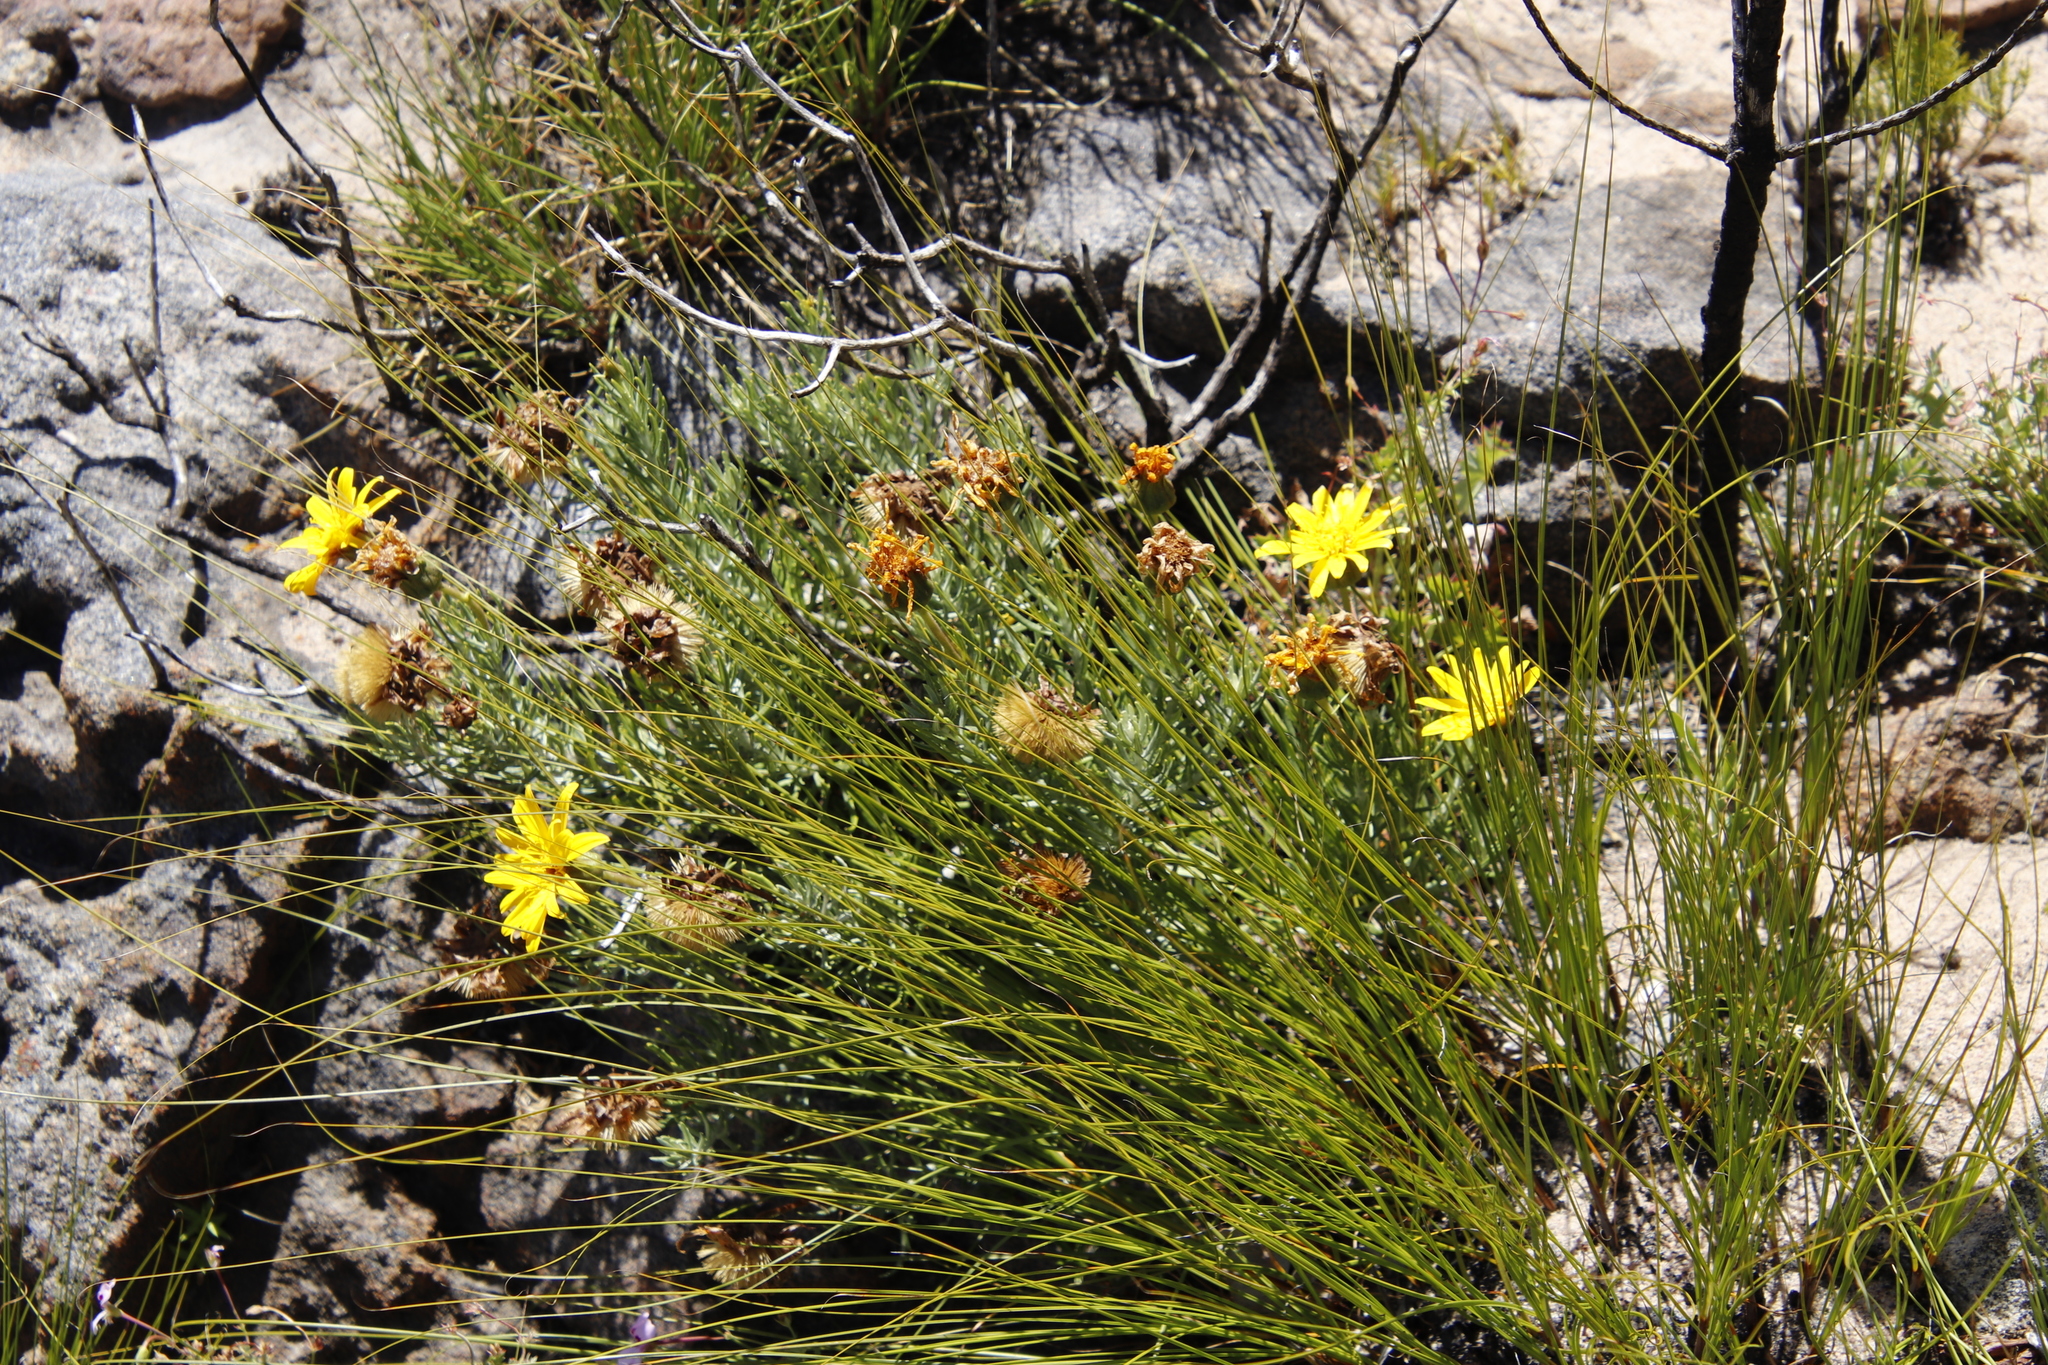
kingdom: Plantae
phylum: Tracheophyta
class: Magnoliopsida
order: Asterales
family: Asteraceae
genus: Heterolepis
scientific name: Heterolepis aliena
